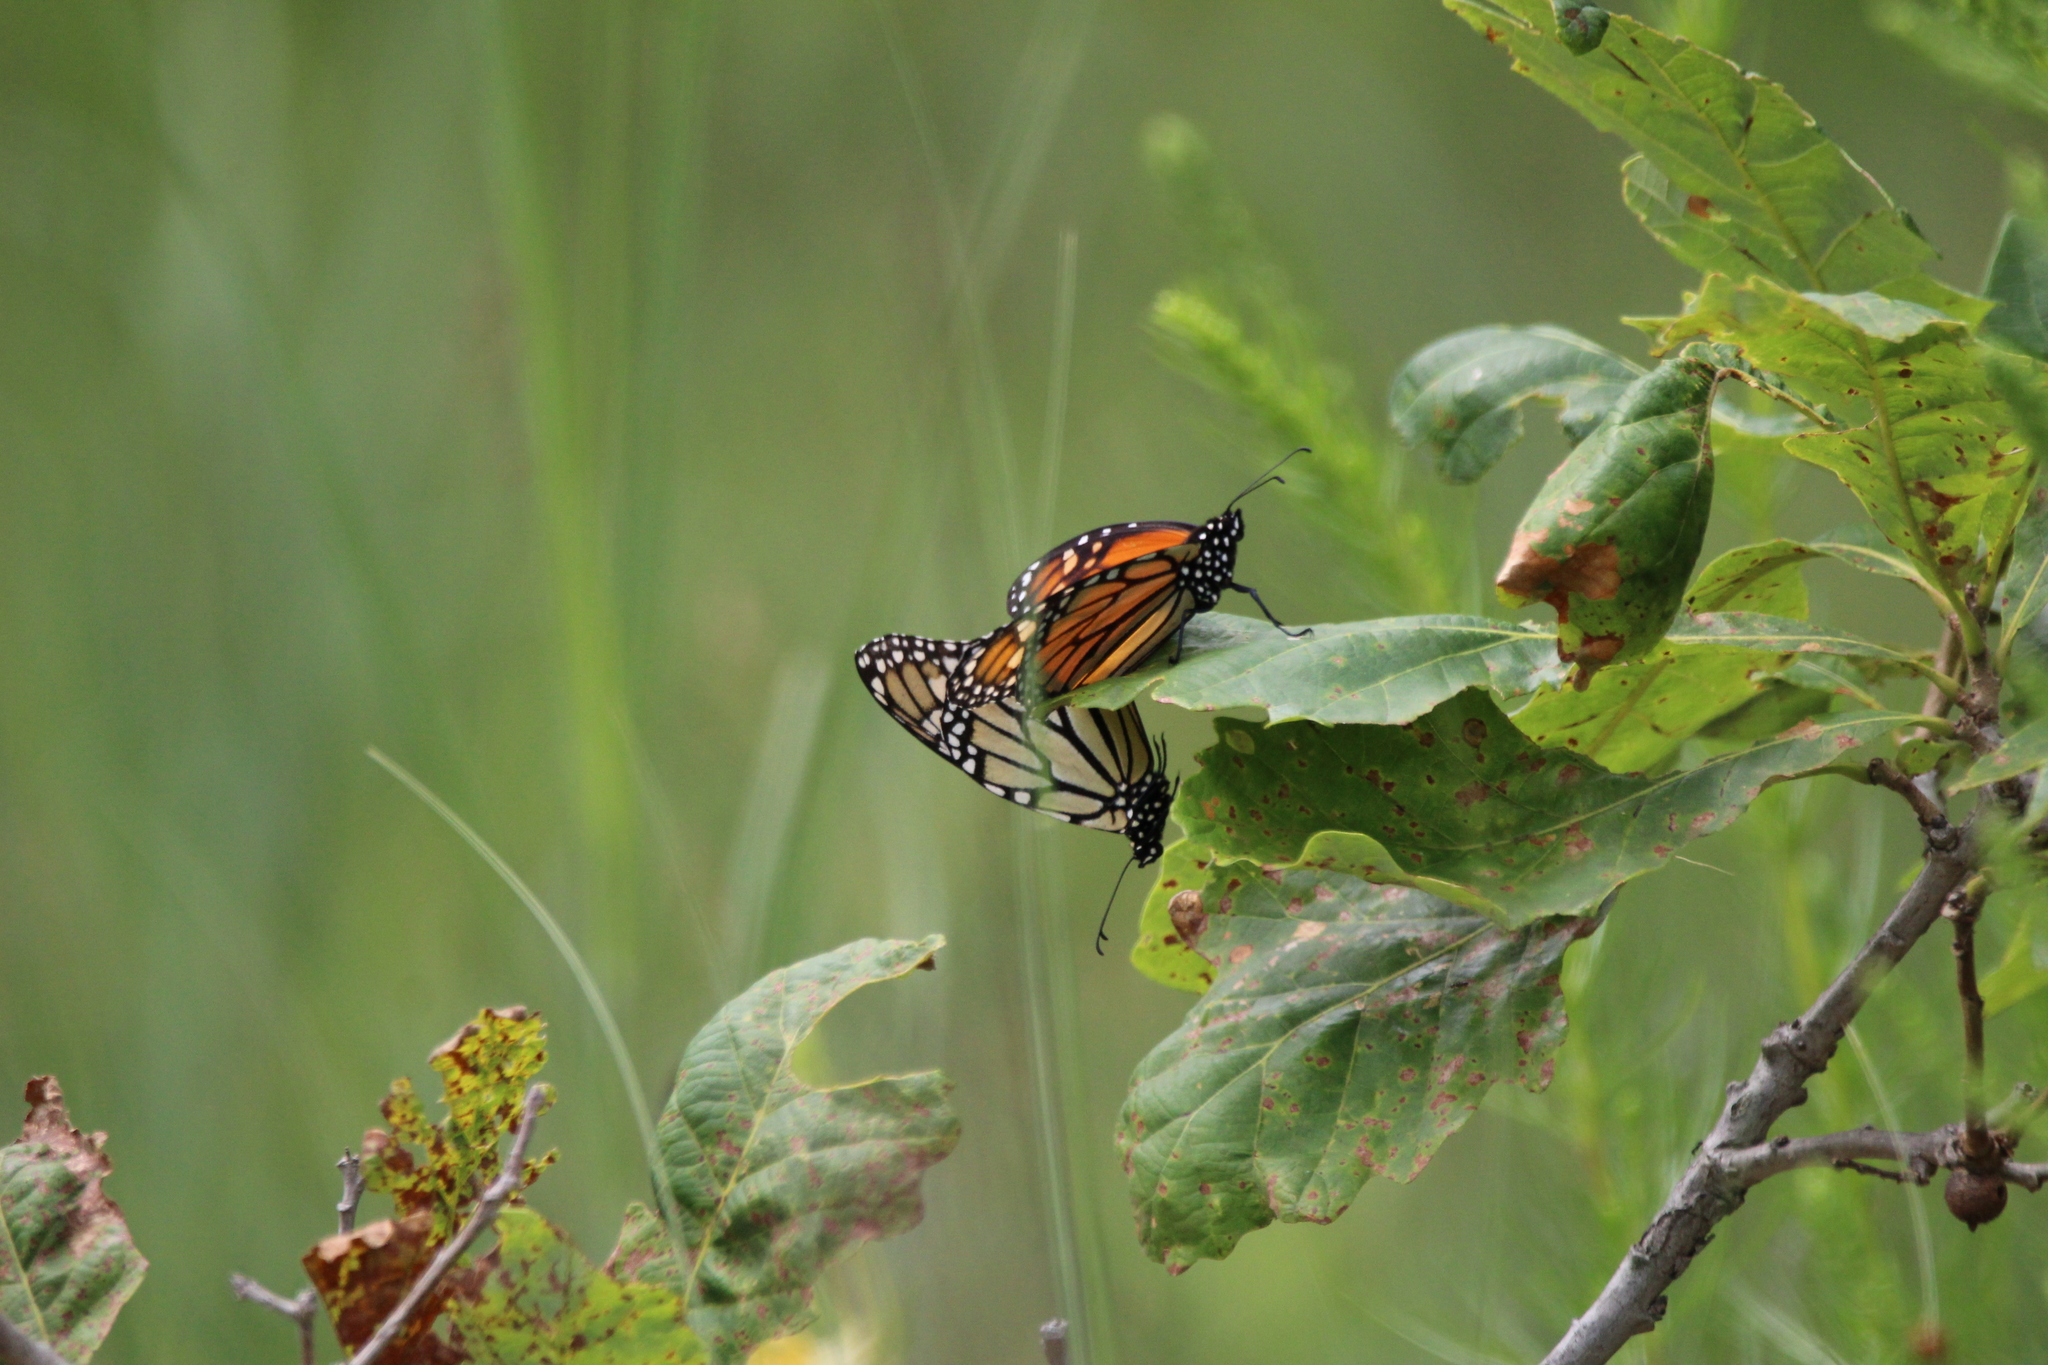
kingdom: Animalia
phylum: Arthropoda
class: Insecta
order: Lepidoptera
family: Nymphalidae
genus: Danaus
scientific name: Danaus plexippus
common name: Monarch
